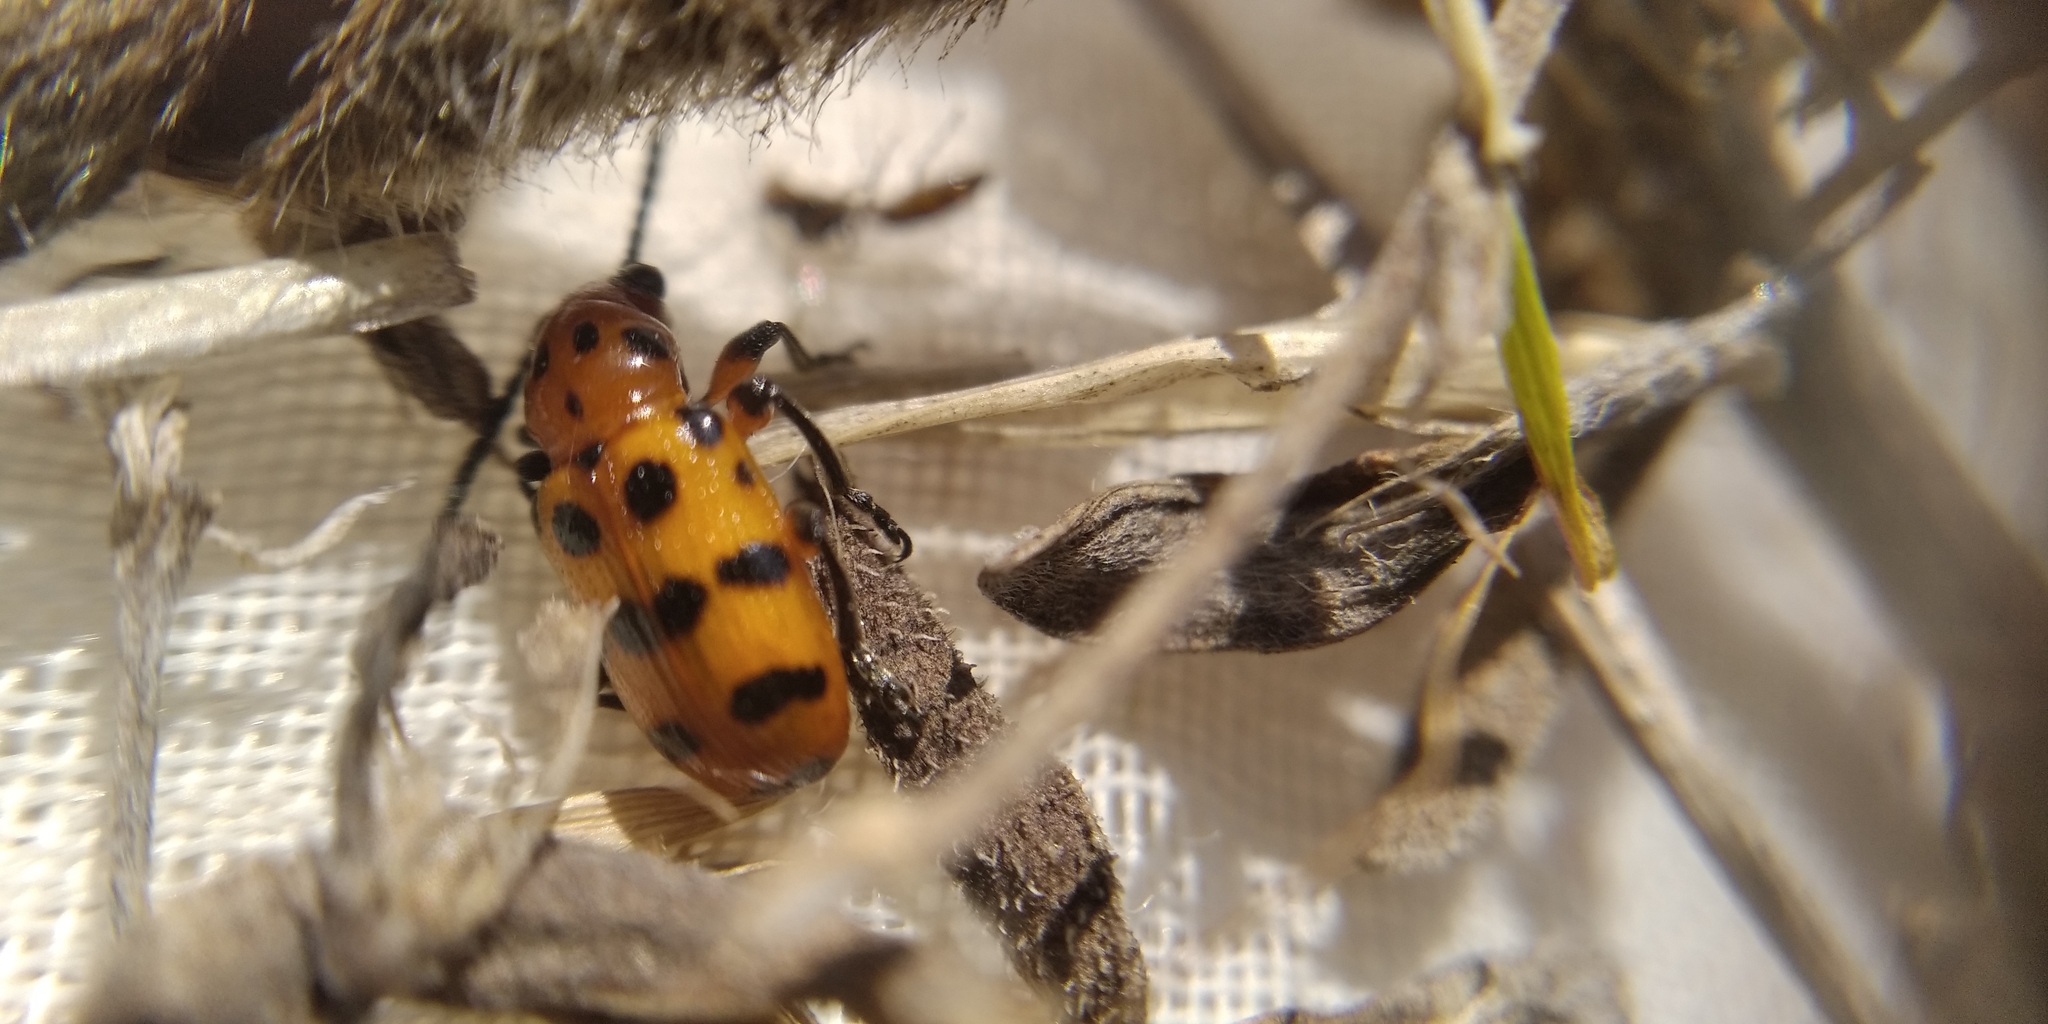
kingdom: Animalia
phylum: Arthropoda
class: Insecta
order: Coleoptera
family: Chrysomelidae
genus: Crioceris
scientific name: Crioceris quatuordecimpunctata
